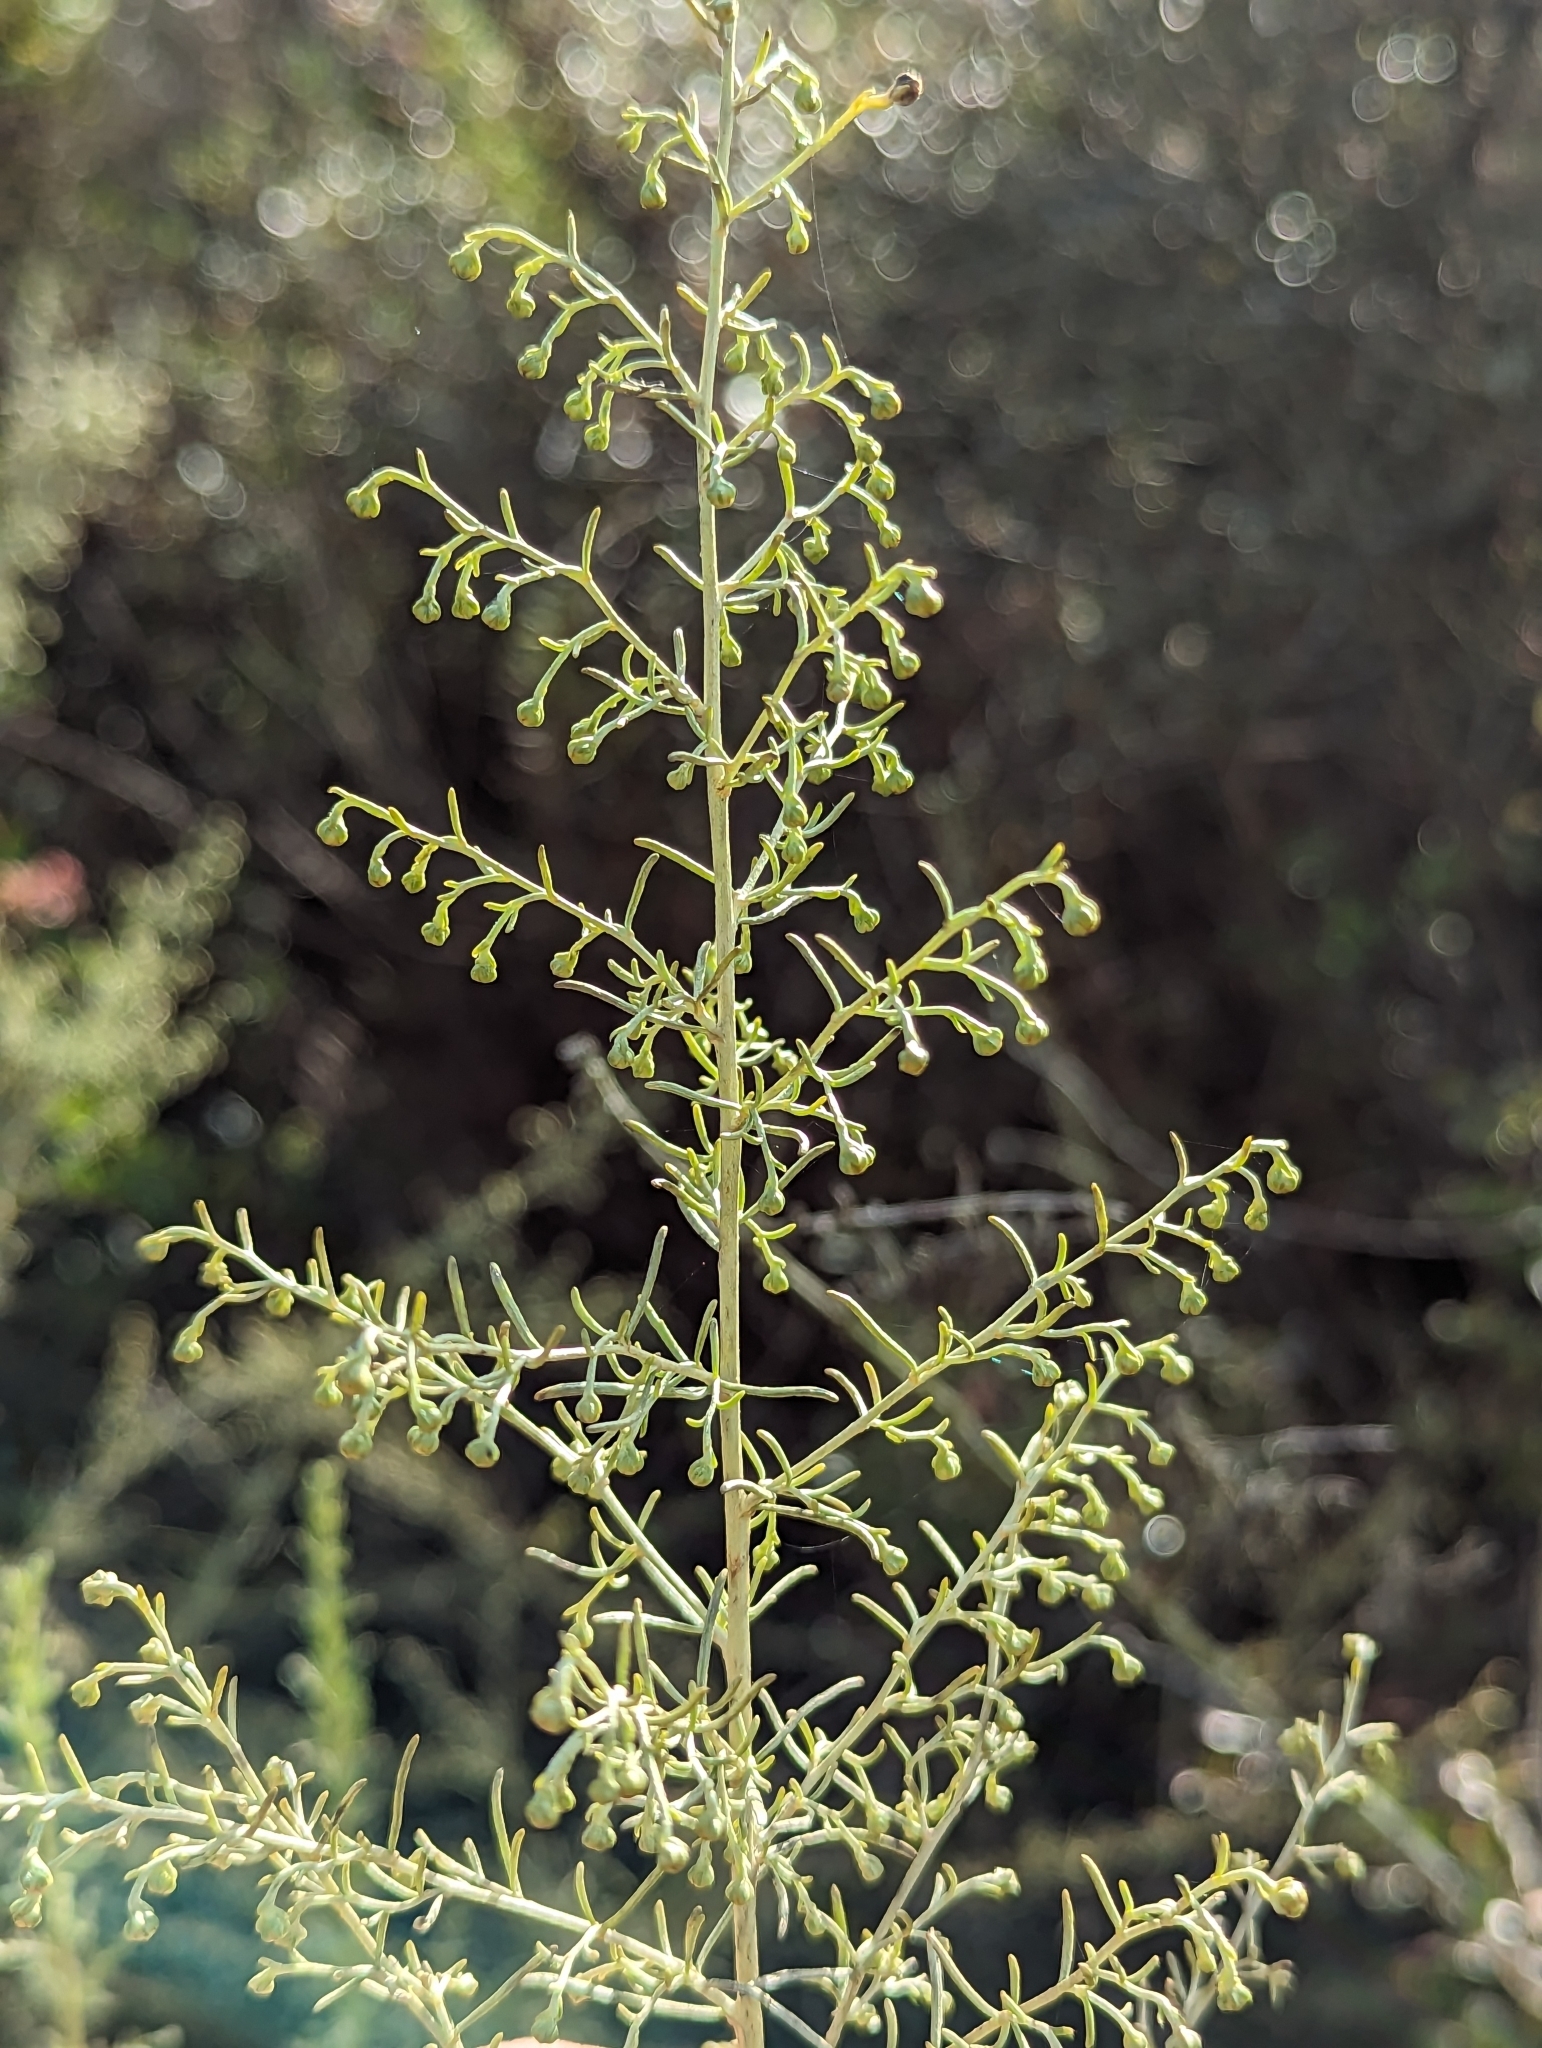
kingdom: Plantae
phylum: Tracheophyta
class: Magnoliopsida
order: Asterales
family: Asteraceae
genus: Artemisia
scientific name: Artemisia californica
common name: California sagebrush
